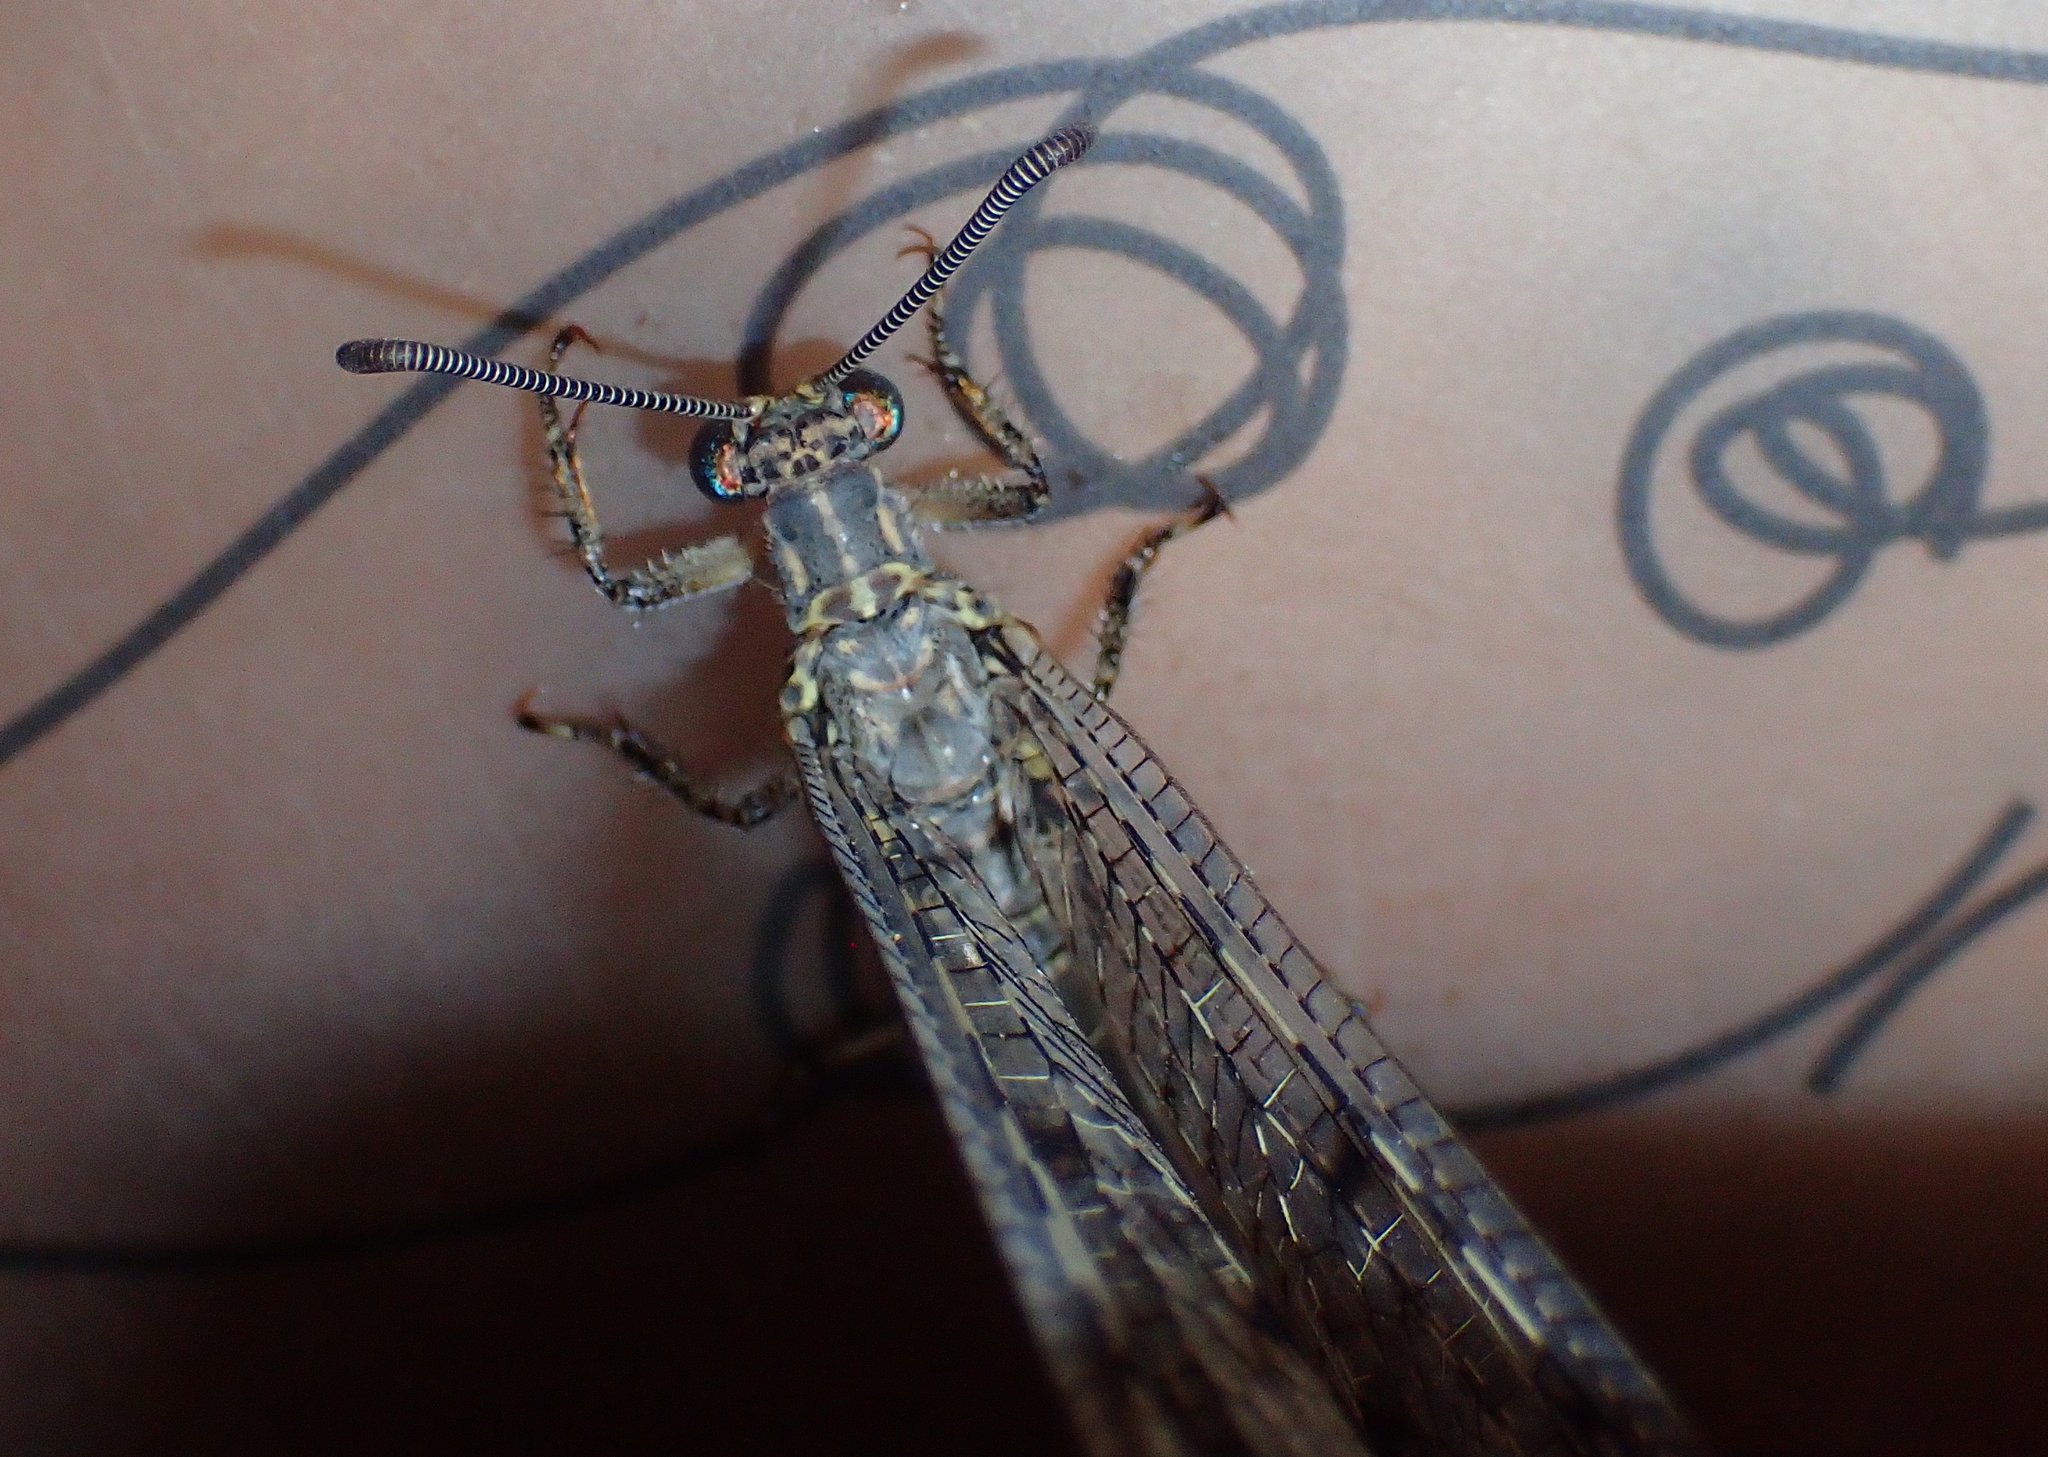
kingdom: Animalia
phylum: Arthropoda
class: Insecta
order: Neuroptera
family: Myrmeleontidae
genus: Distoleon
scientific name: Distoleon tetragrammicus
